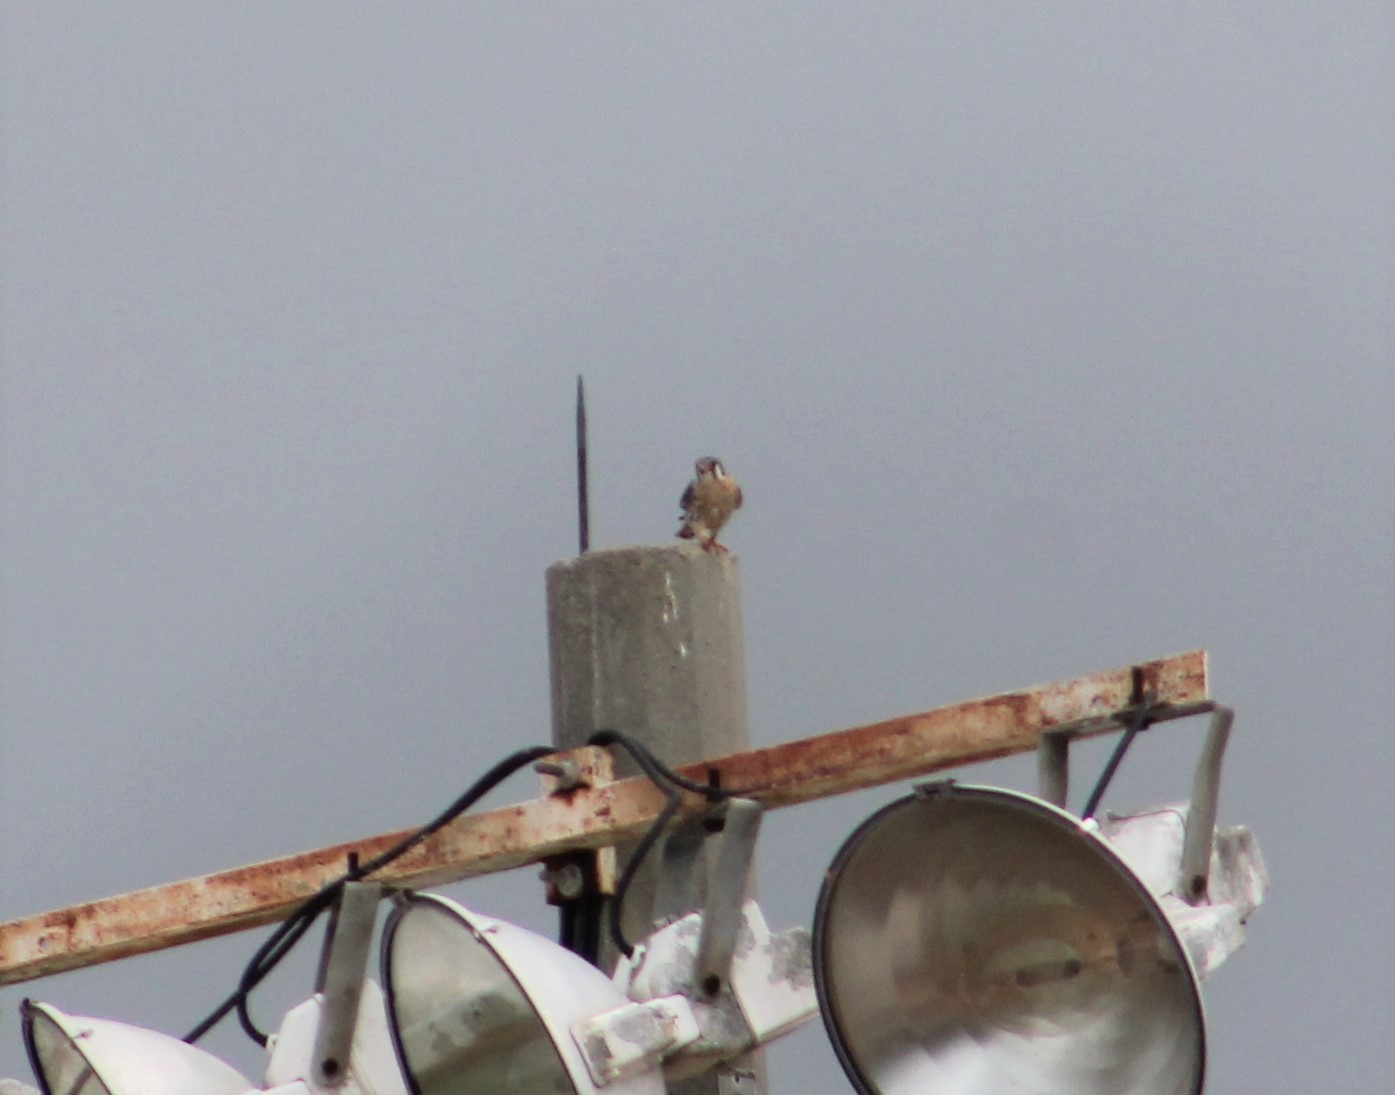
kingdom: Animalia
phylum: Chordata
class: Aves
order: Falconiformes
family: Falconidae
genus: Falco
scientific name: Falco sparverius
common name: American kestrel
